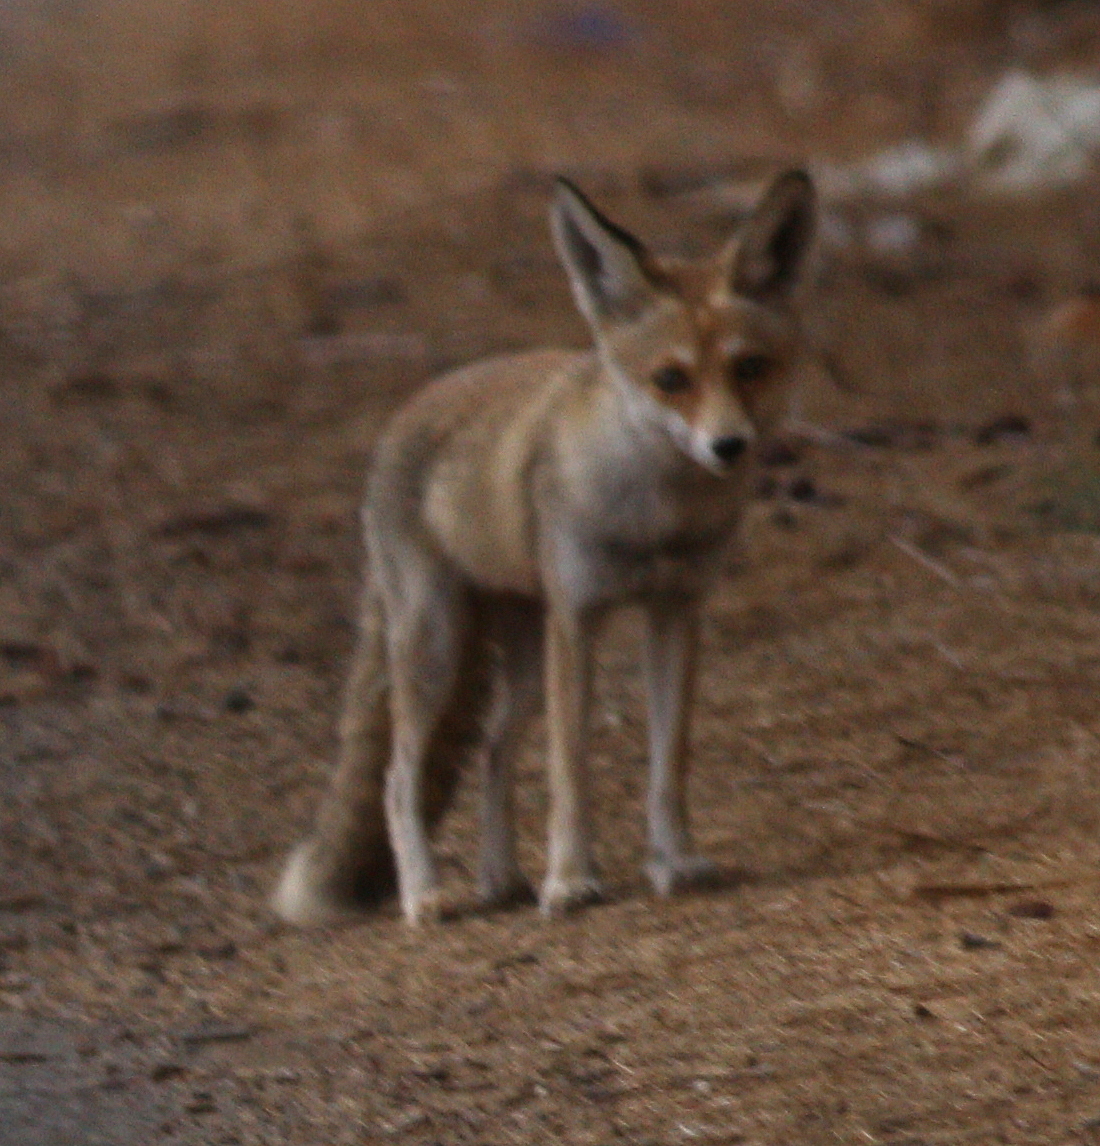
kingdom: Animalia
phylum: Chordata
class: Mammalia
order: Carnivora
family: Canidae
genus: Vulpes
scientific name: Vulpes vulpes
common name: Red fox
